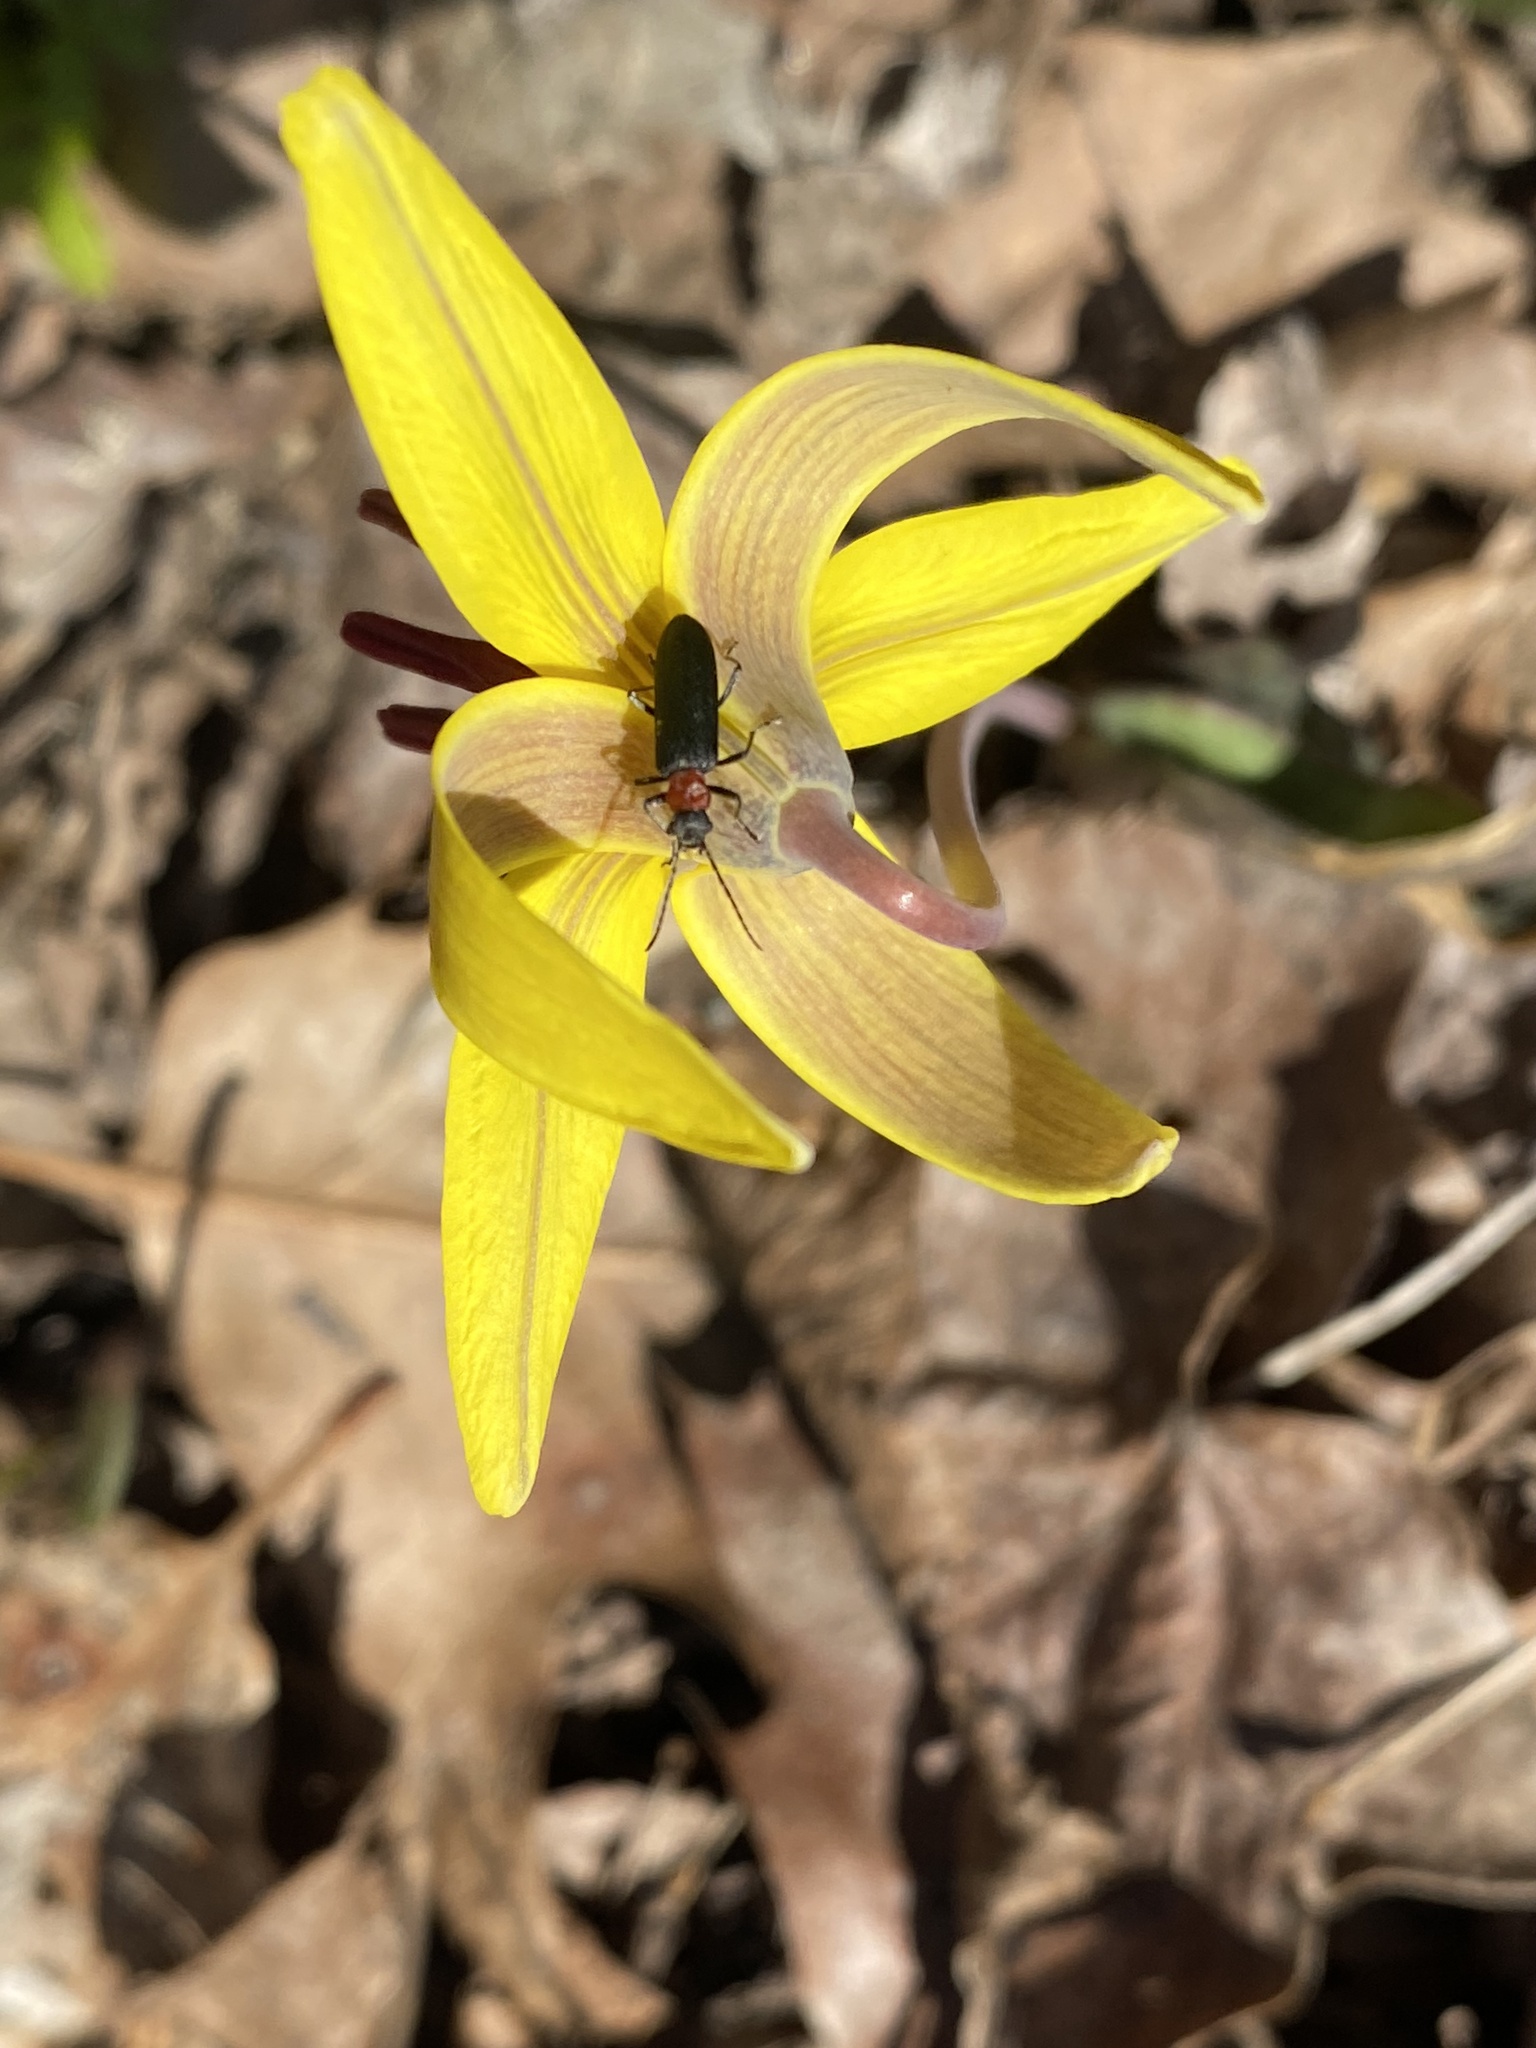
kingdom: Animalia
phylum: Arthropoda
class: Insecta
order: Coleoptera
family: Oedemeridae
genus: Ischnomera
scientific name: Ischnomera
